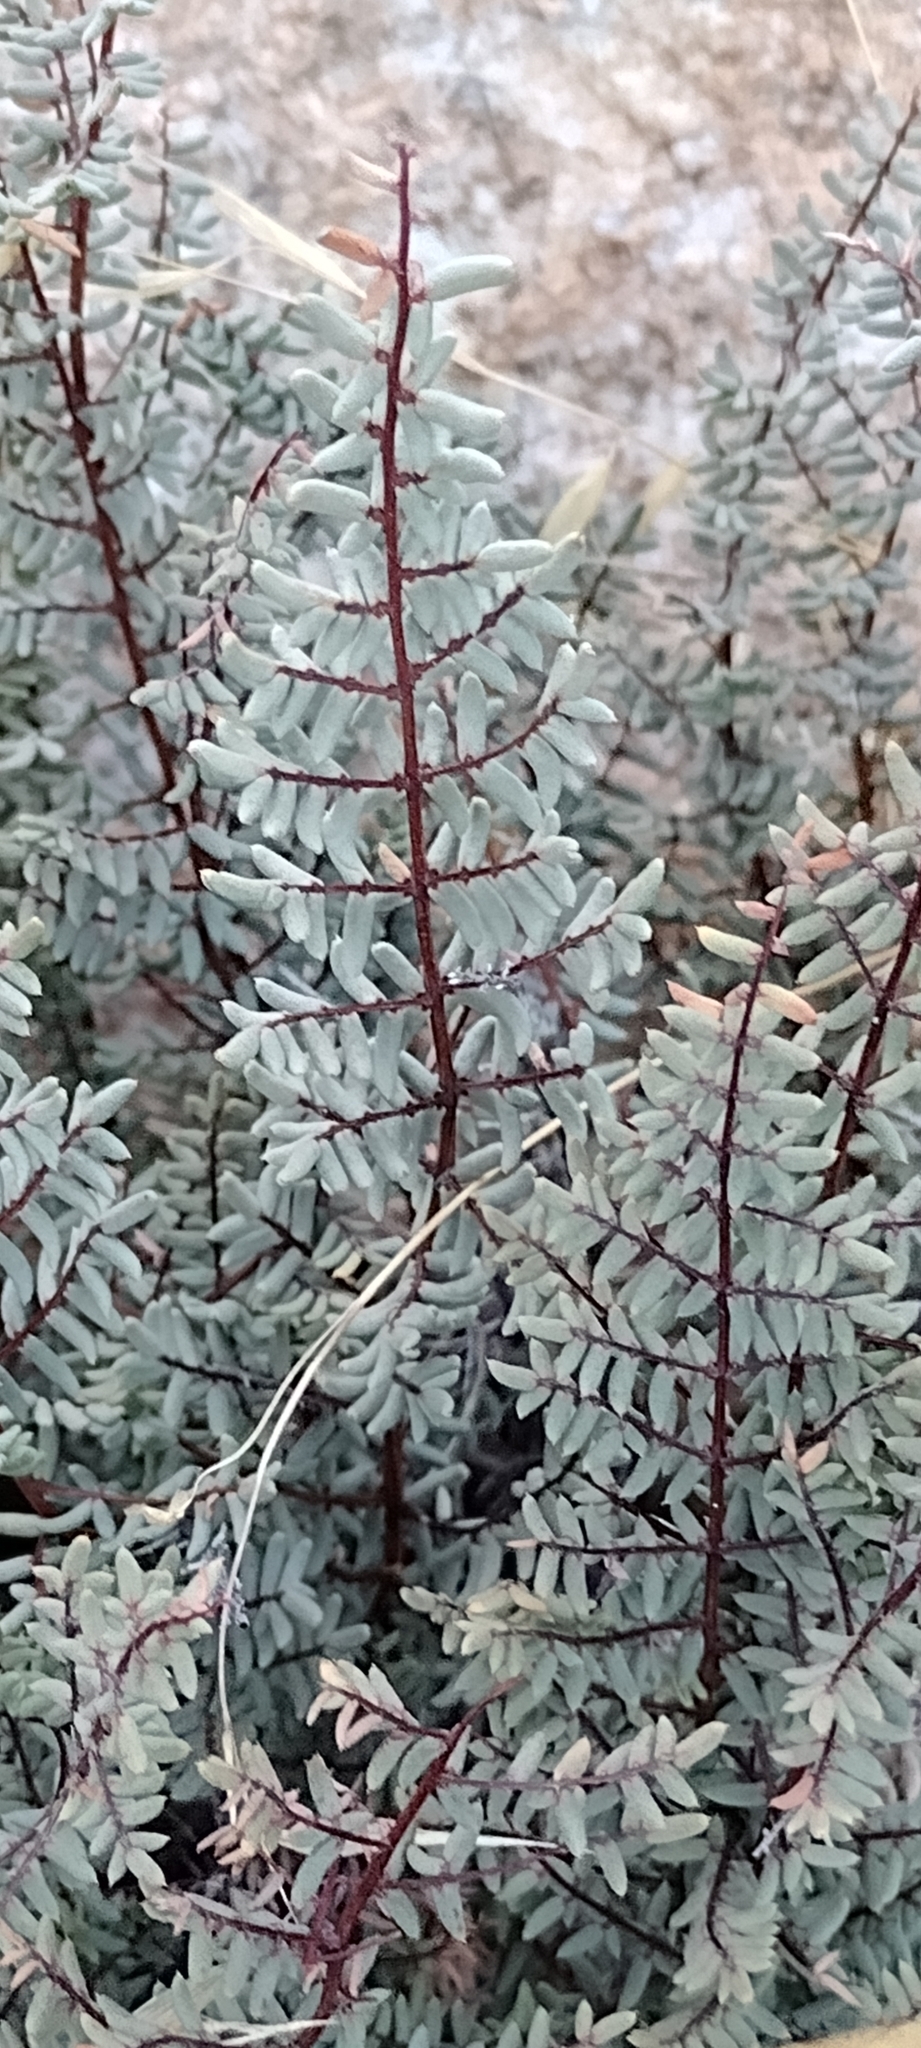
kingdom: Plantae
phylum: Tracheophyta
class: Polypodiopsida
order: Polypodiales
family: Pteridaceae
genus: Pellaea
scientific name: Pellaea mucronata
